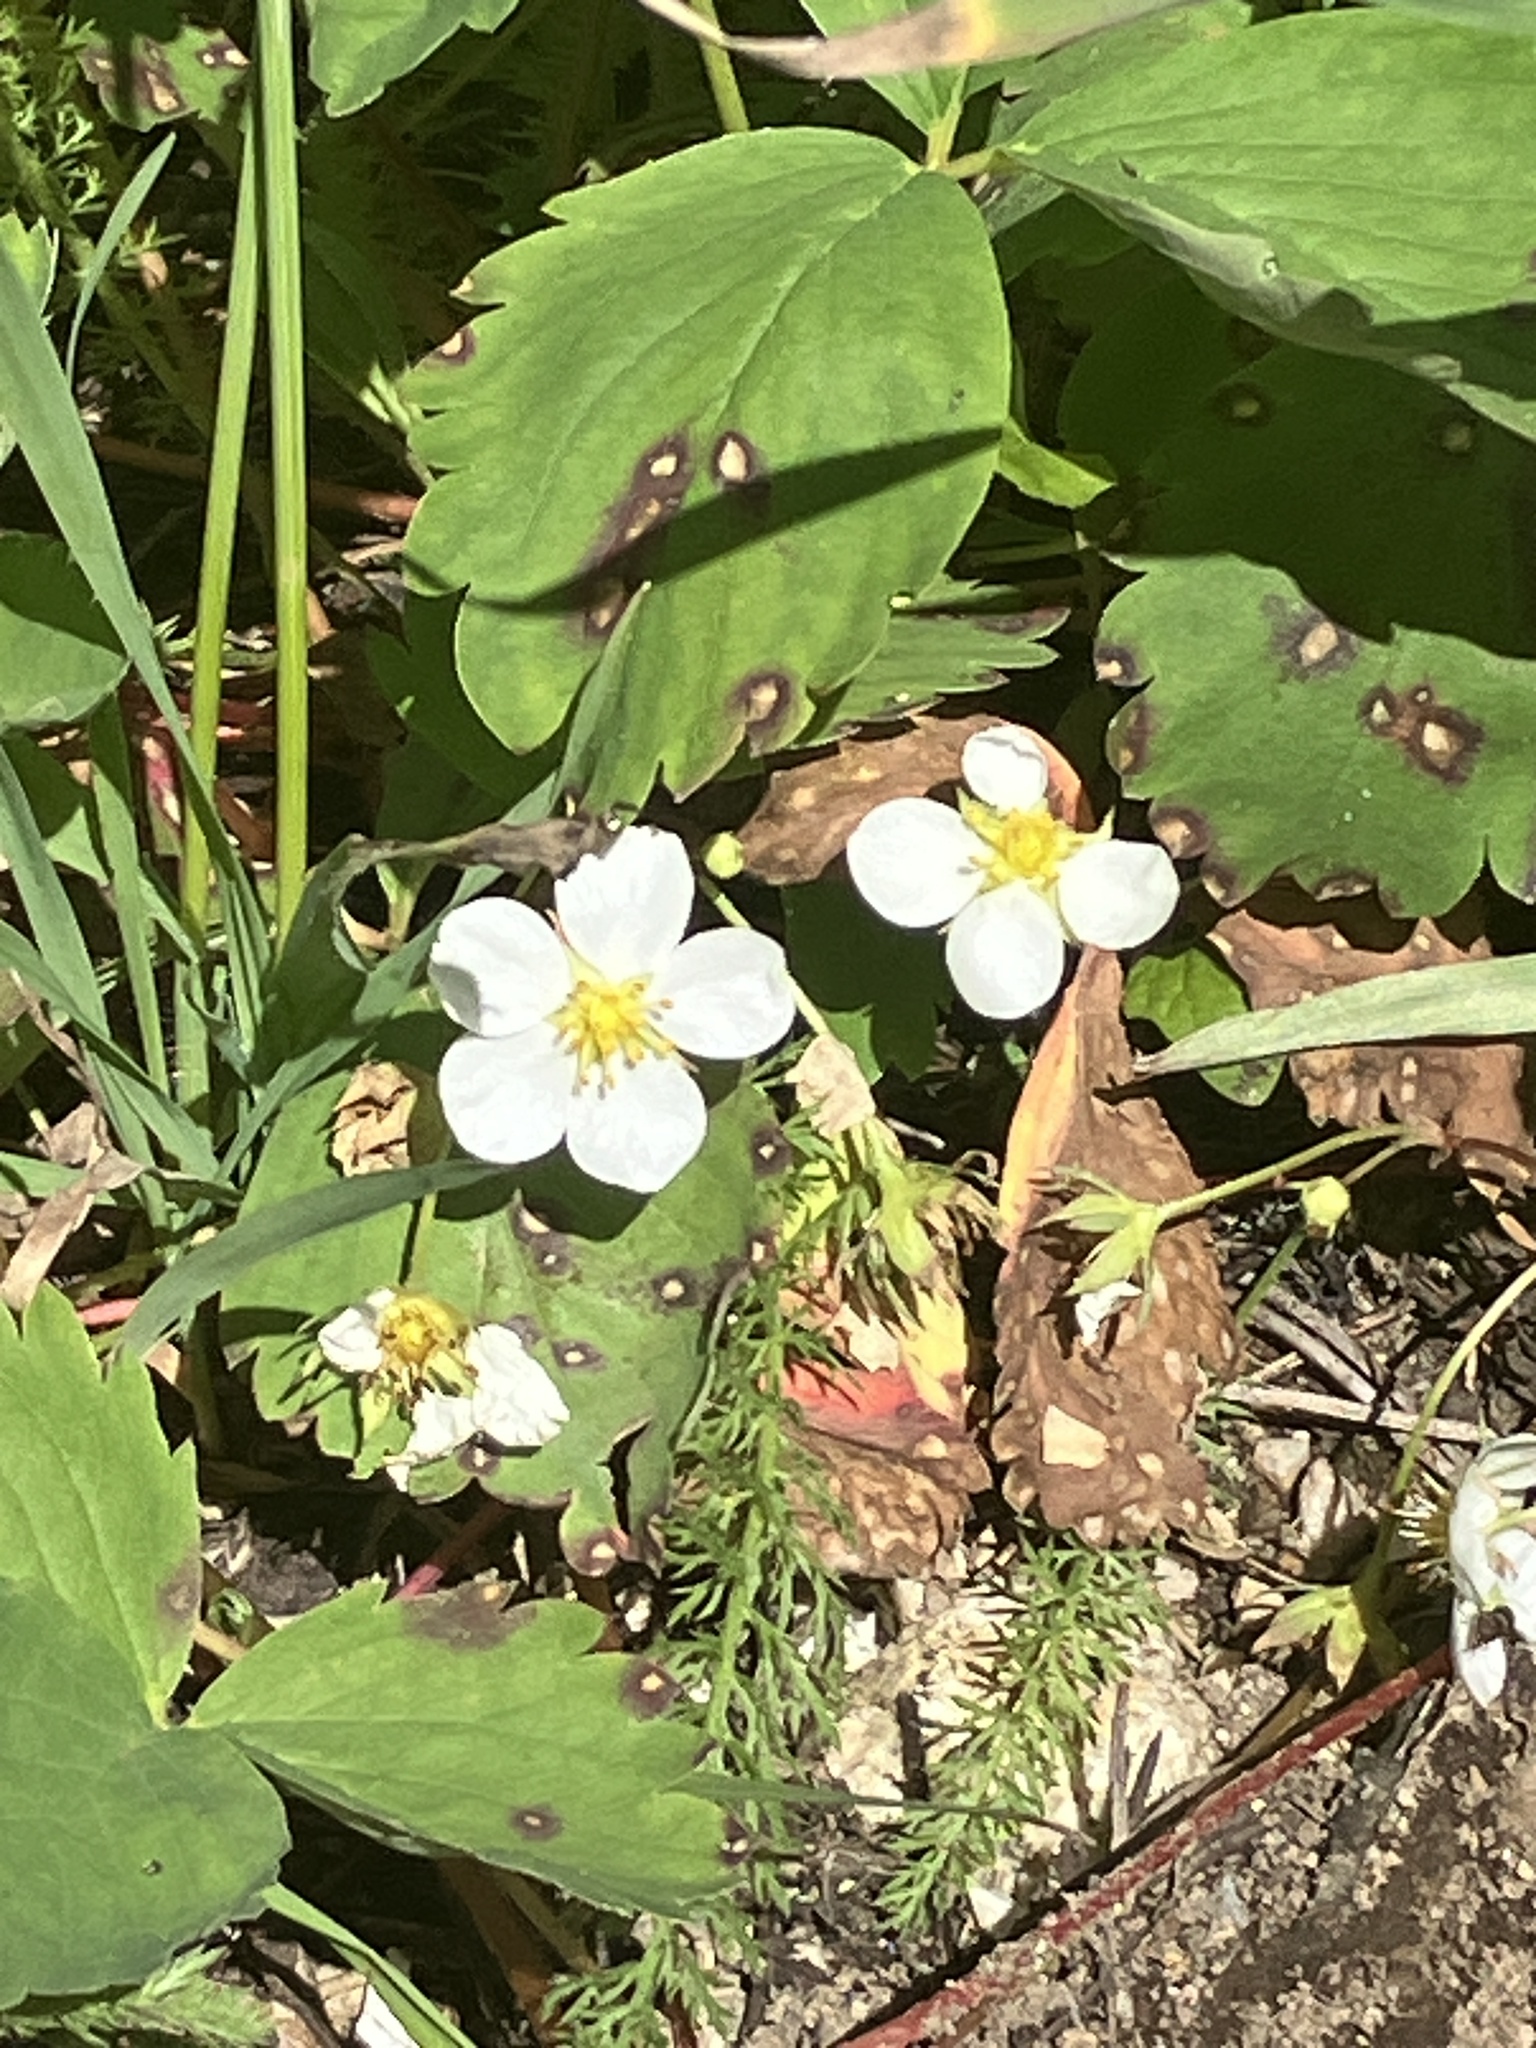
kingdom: Plantae
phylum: Tracheophyta
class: Magnoliopsida
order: Rosales
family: Rosaceae
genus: Fragaria
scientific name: Fragaria virginiana
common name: Thickleaved wild strawberry
